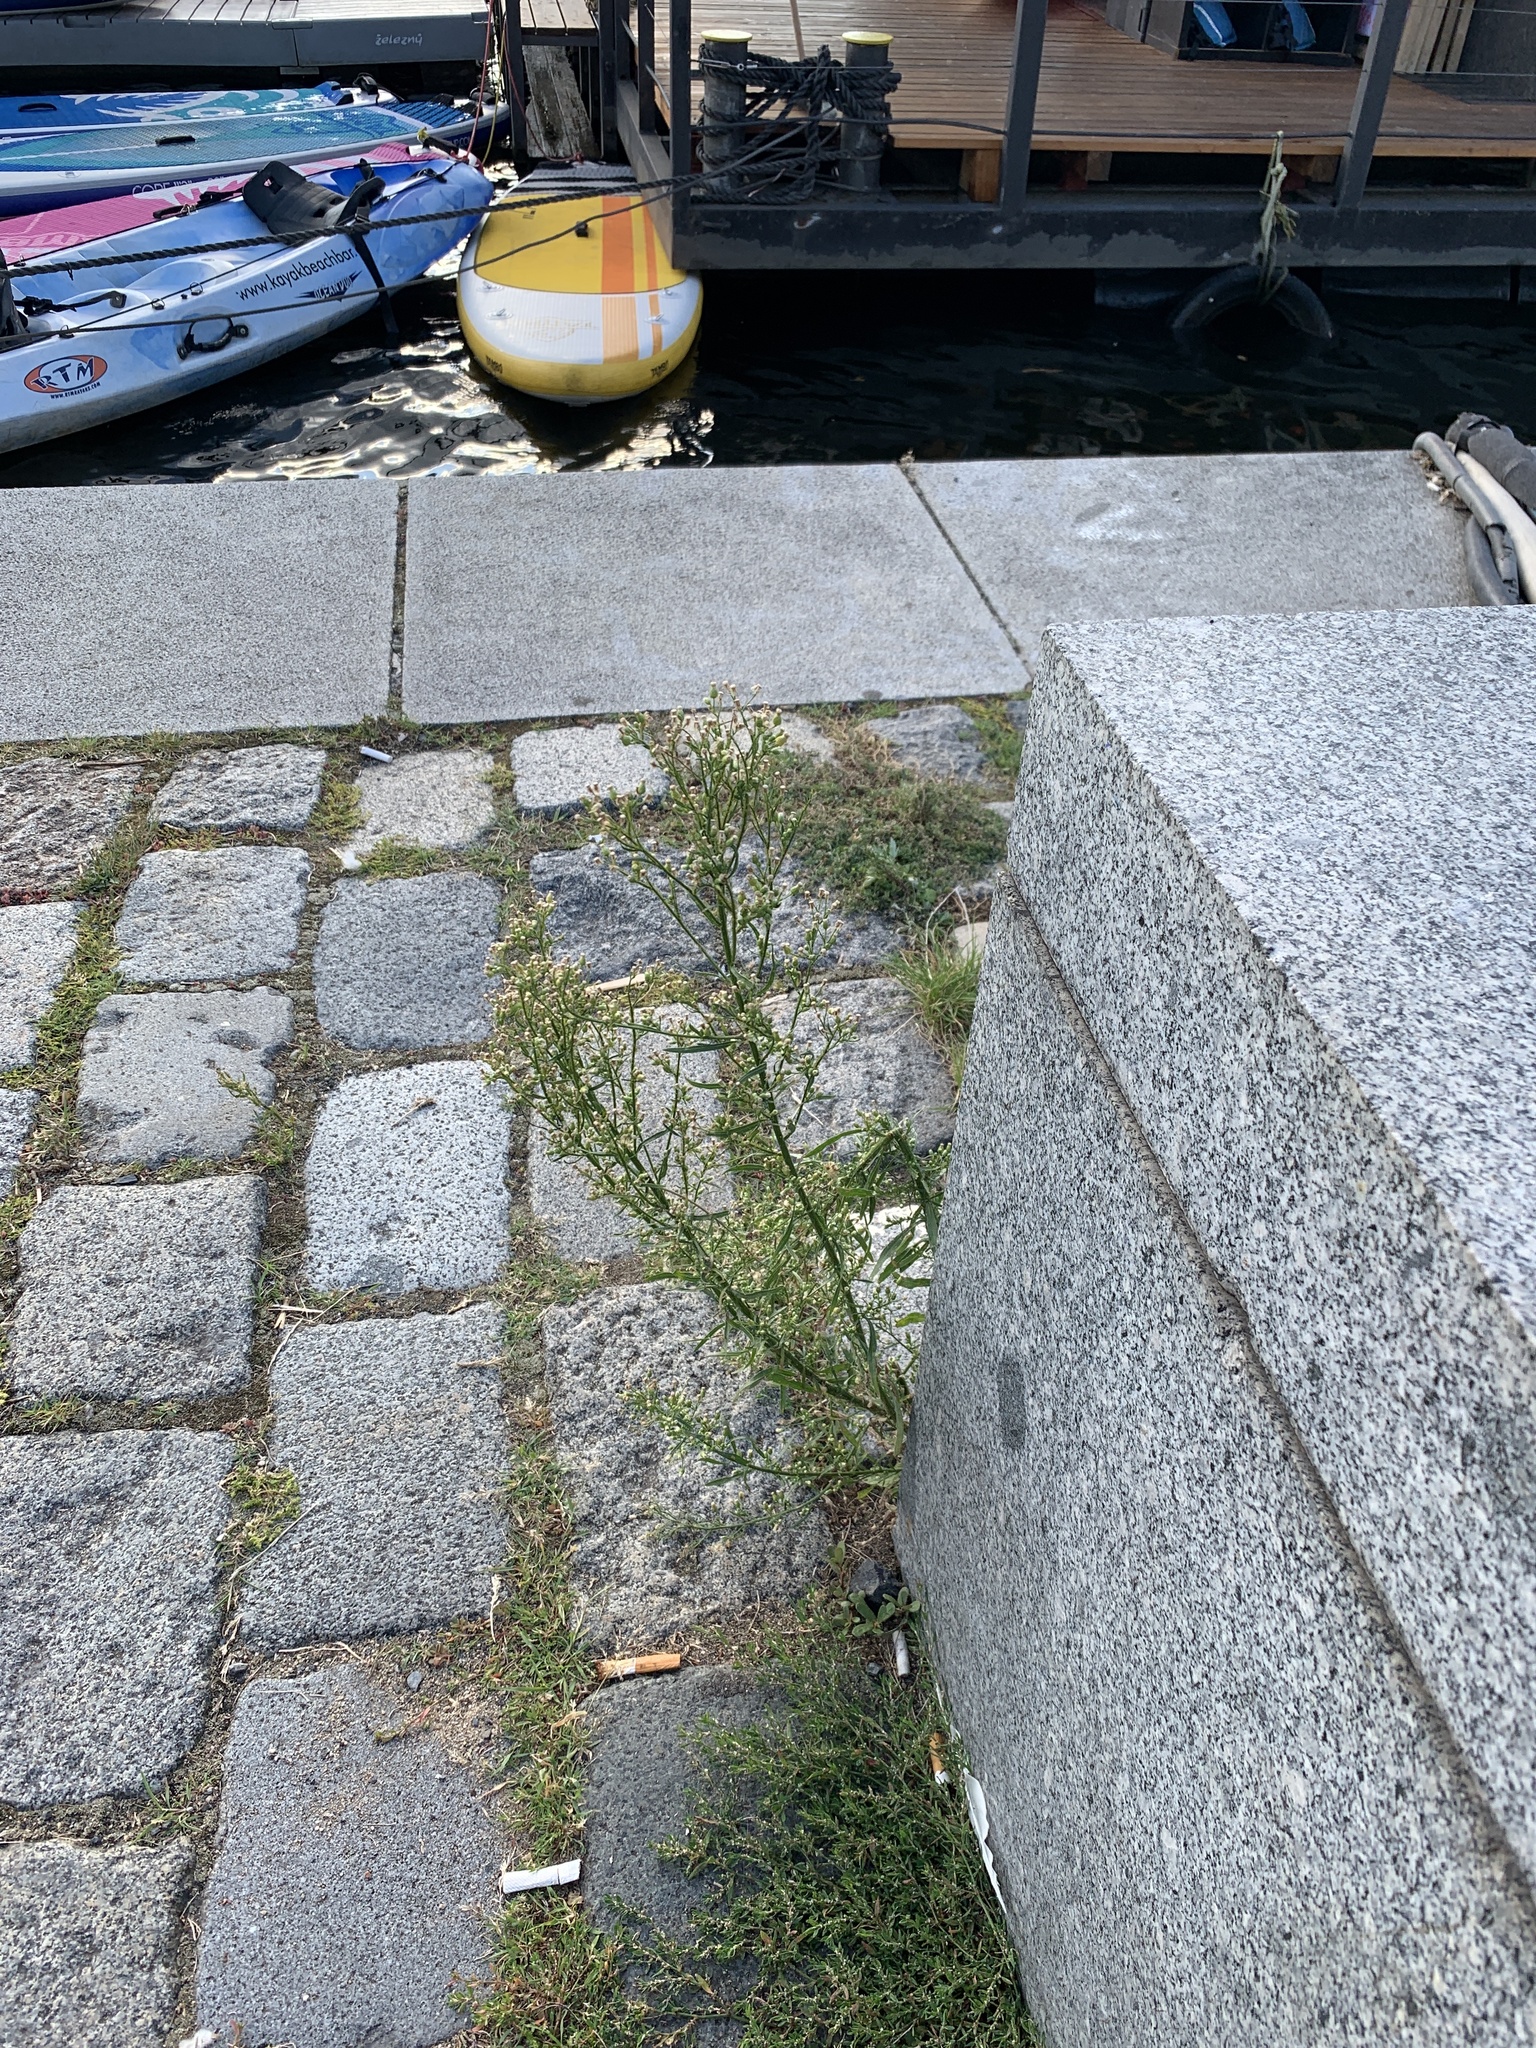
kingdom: Plantae
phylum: Tracheophyta
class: Magnoliopsida
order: Asterales
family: Asteraceae
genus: Erigeron
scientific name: Erigeron canadensis
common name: Canadian fleabane
